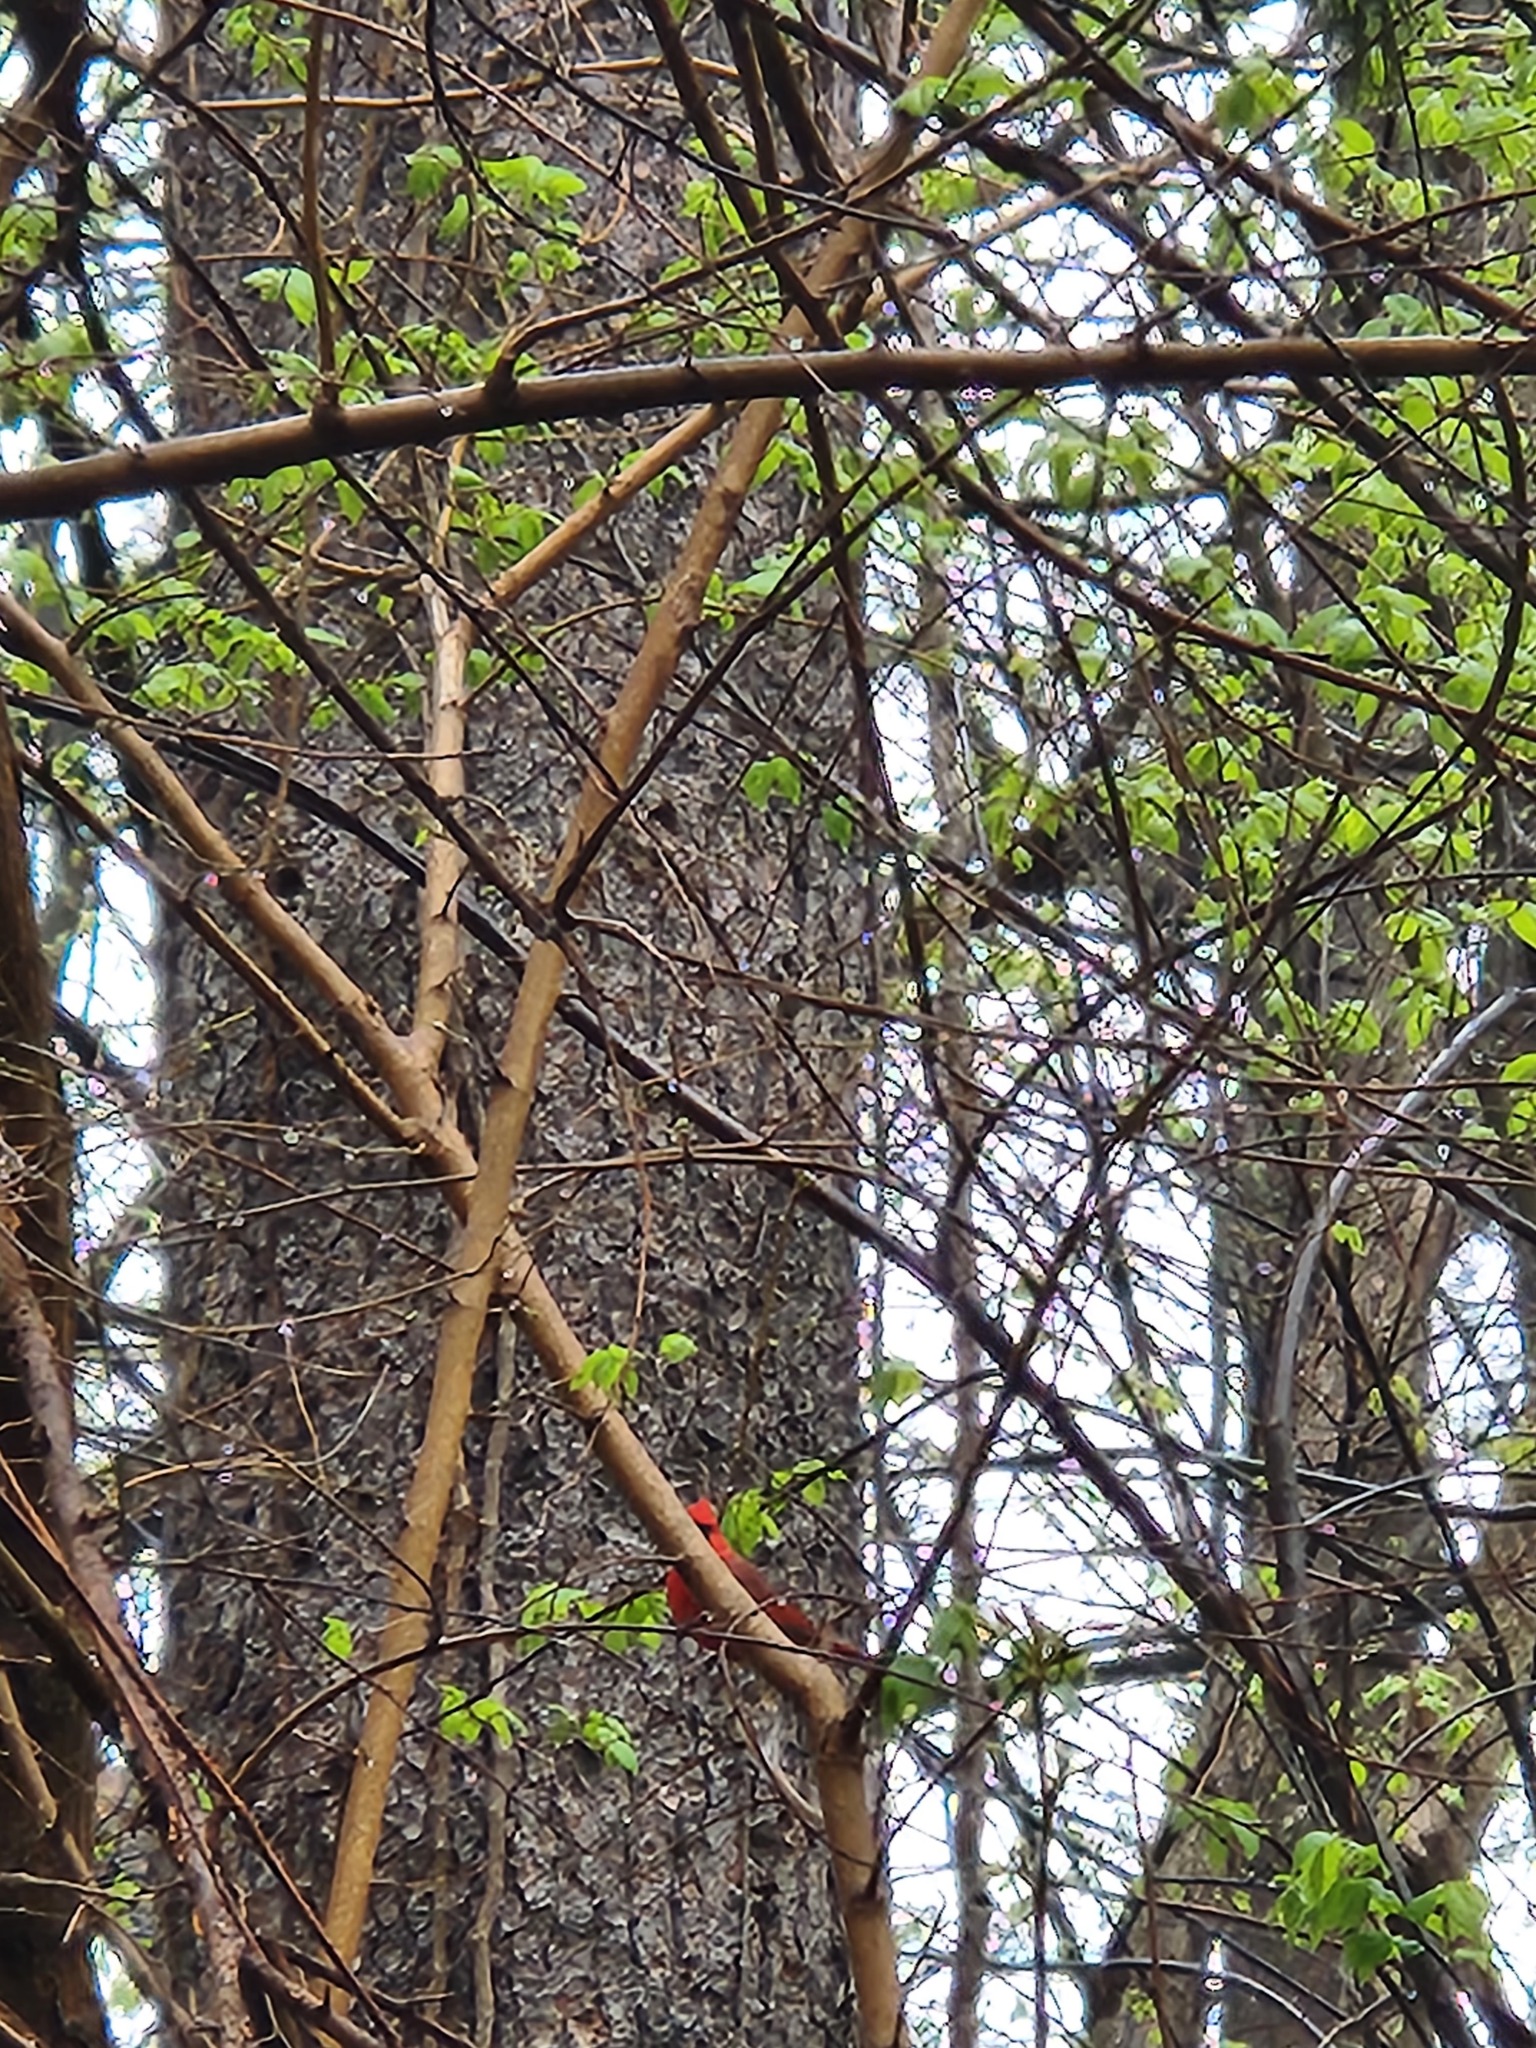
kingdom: Animalia
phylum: Chordata
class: Aves
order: Passeriformes
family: Cardinalidae
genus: Cardinalis
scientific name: Cardinalis cardinalis
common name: Northern cardinal
